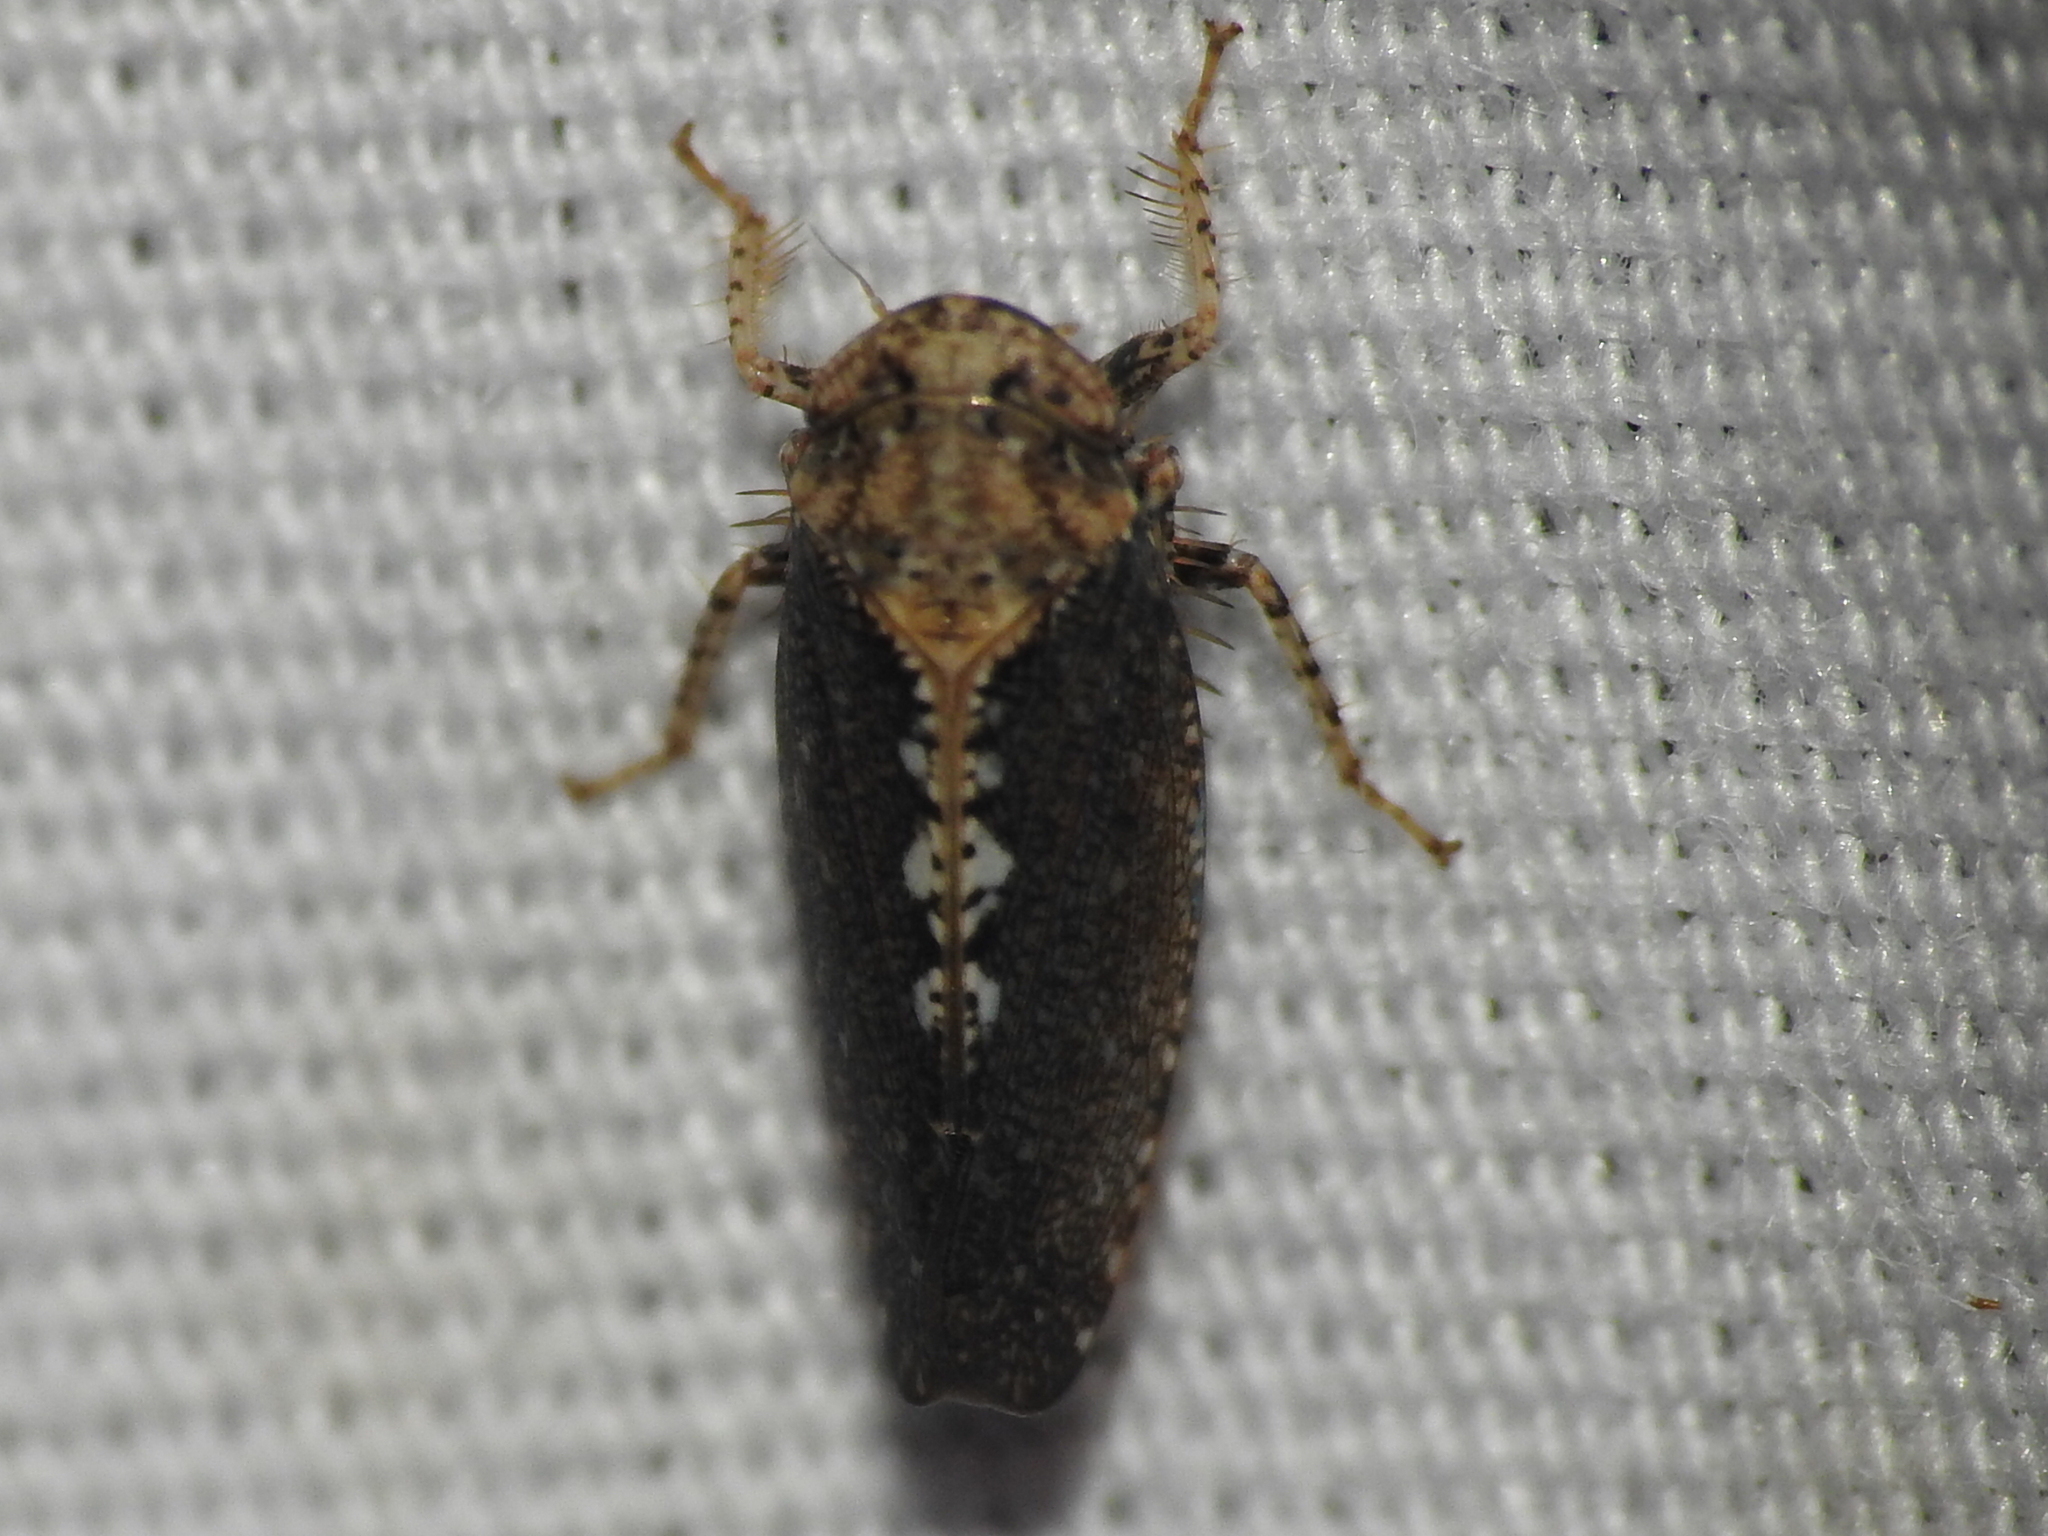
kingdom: Animalia
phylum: Arthropoda
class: Insecta
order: Hemiptera
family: Cicadellidae
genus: Excultanus
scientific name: Excultanus excultus
